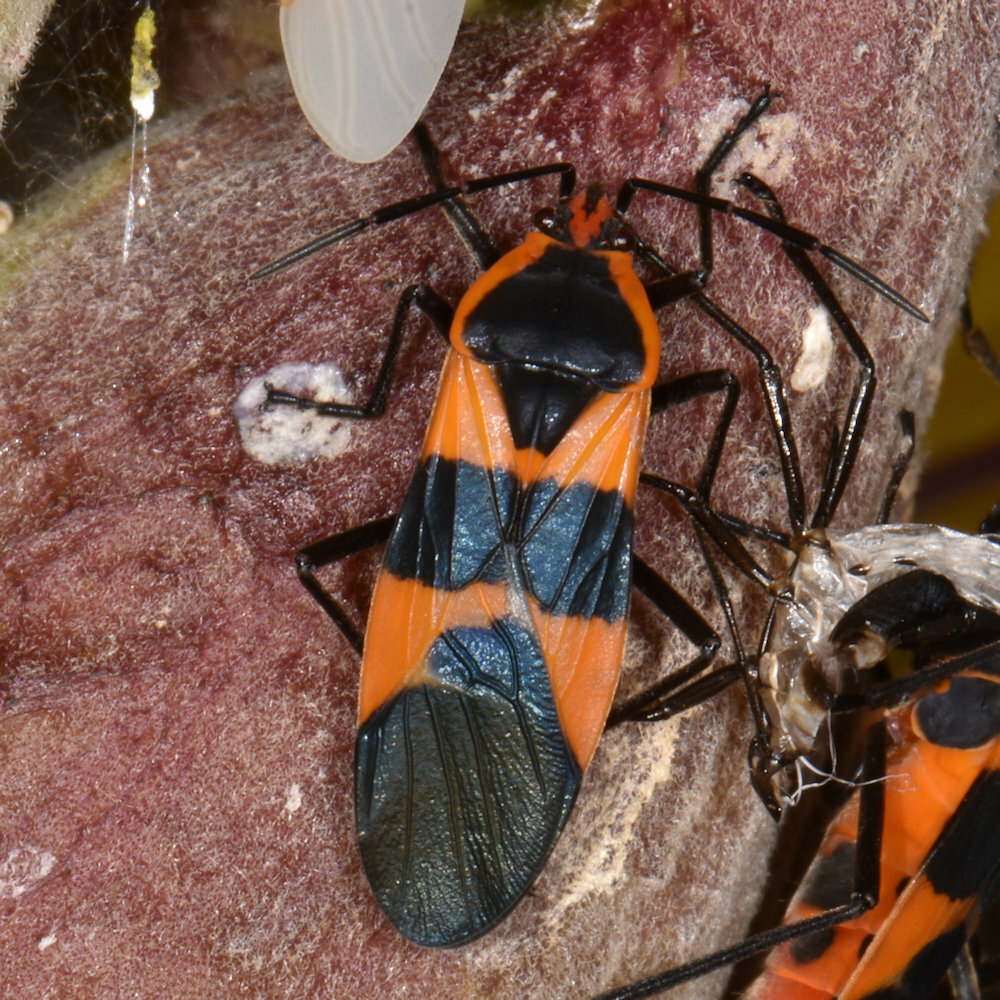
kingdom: Animalia
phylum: Arthropoda
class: Insecta
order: Hemiptera
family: Lygaeidae
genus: Oncopeltus
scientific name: Oncopeltus fasciatus
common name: Large milkweed bug
